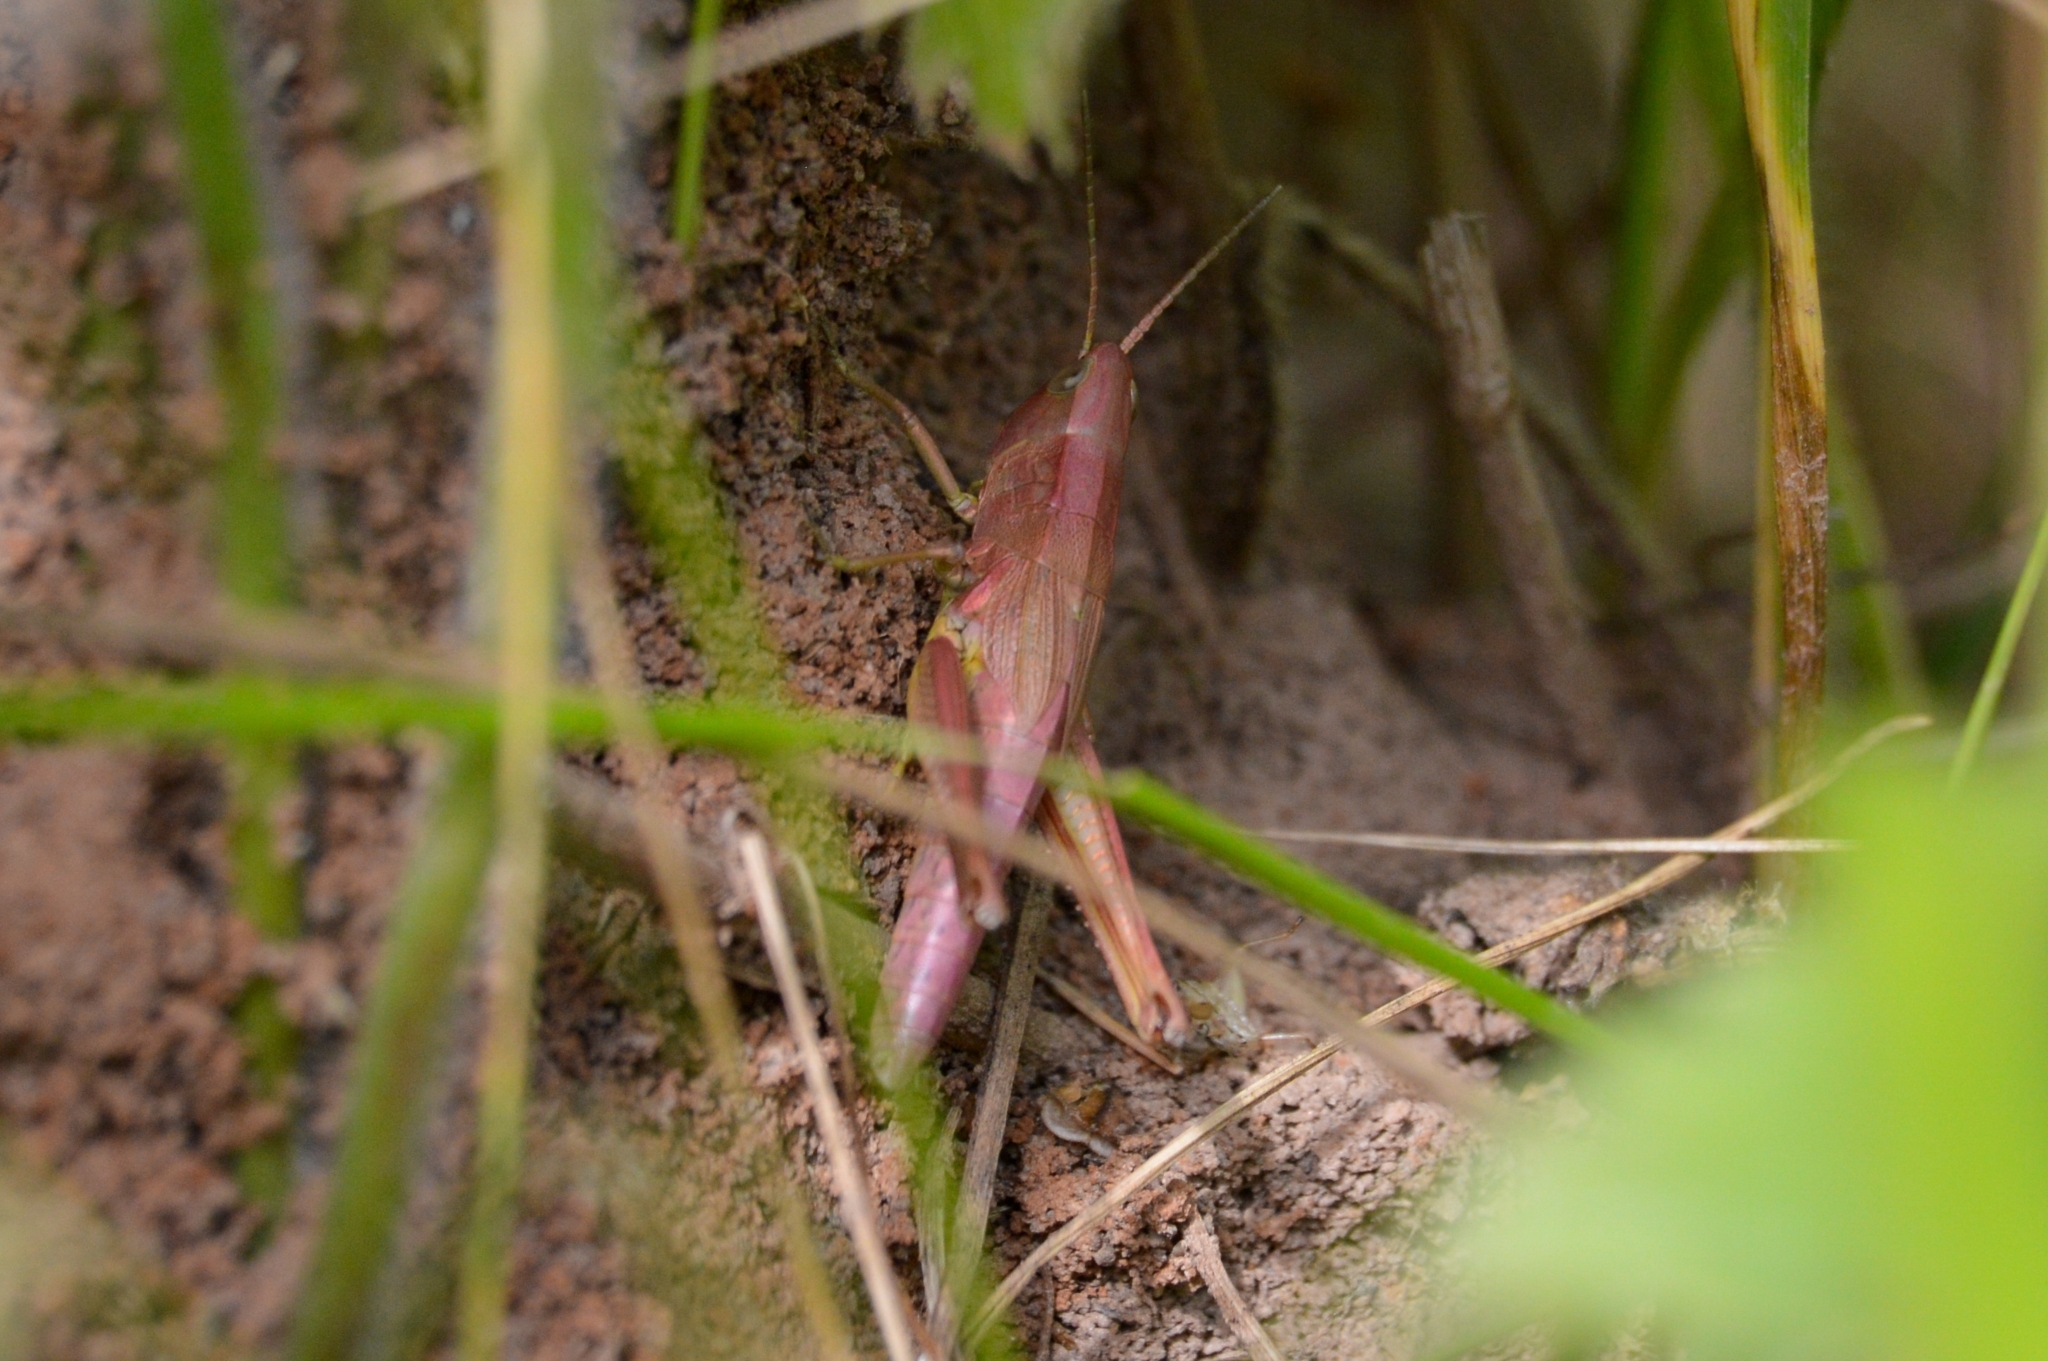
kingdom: Animalia
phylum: Arthropoda
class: Insecta
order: Orthoptera
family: Acrididae
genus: Chrysochraon
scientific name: Chrysochraon dispar
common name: Large gold grasshopper
